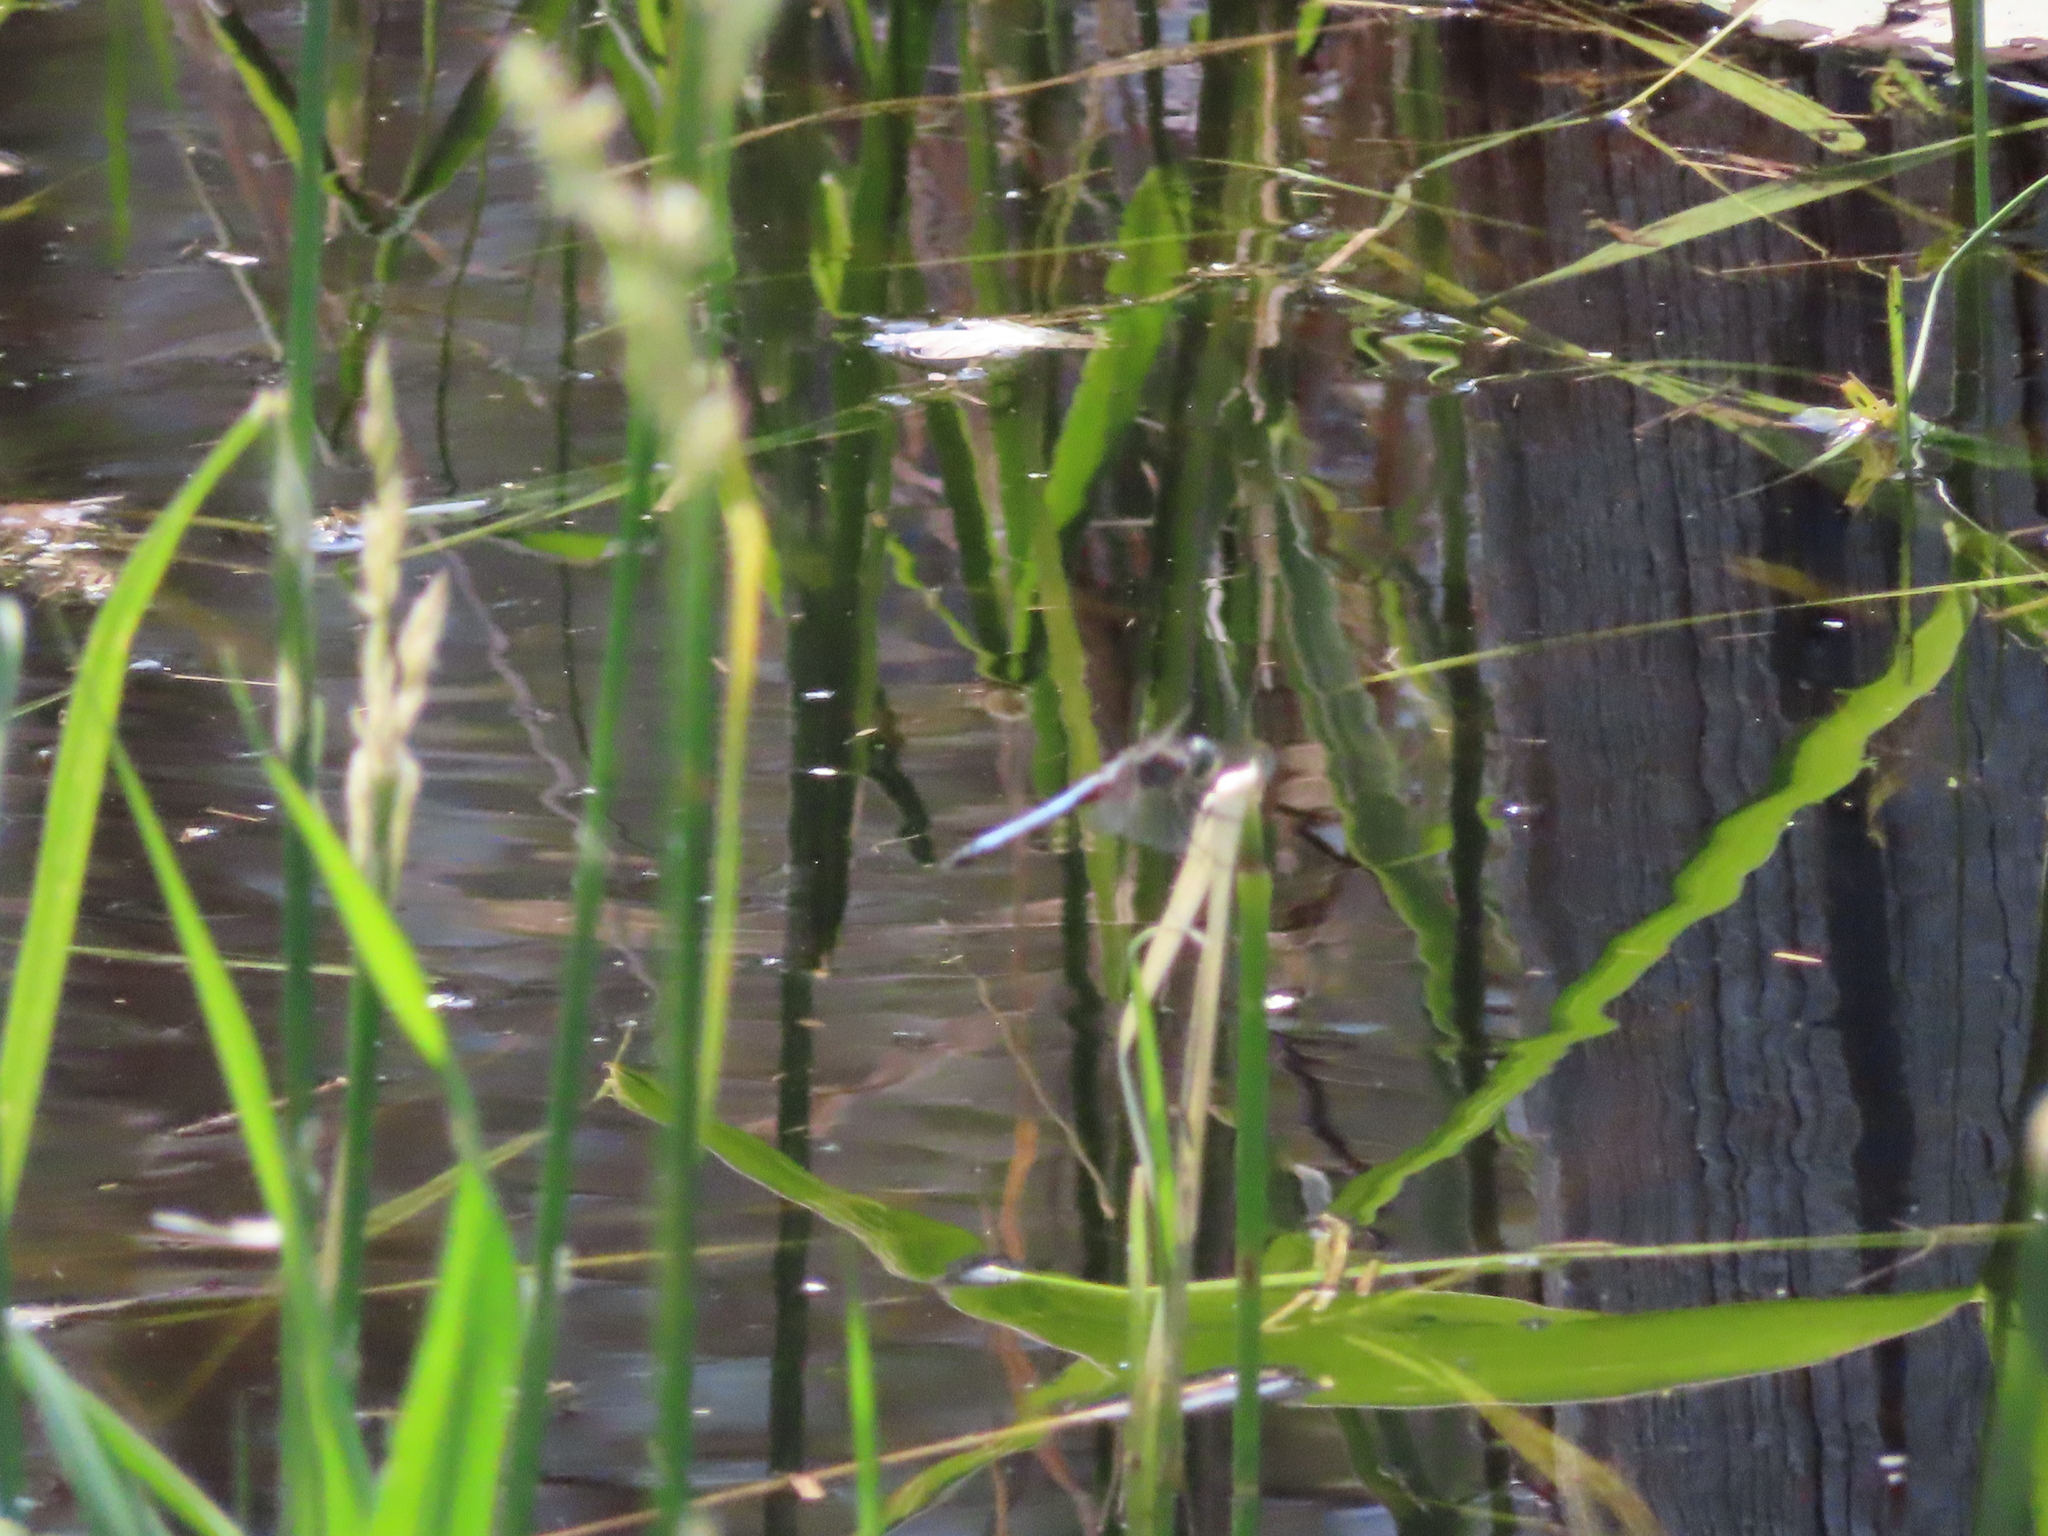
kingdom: Animalia
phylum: Arthropoda
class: Insecta
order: Odonata
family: Libellulidae
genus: Pachydiplax
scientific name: Pachydiplax longipennis
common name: Blue dasher
